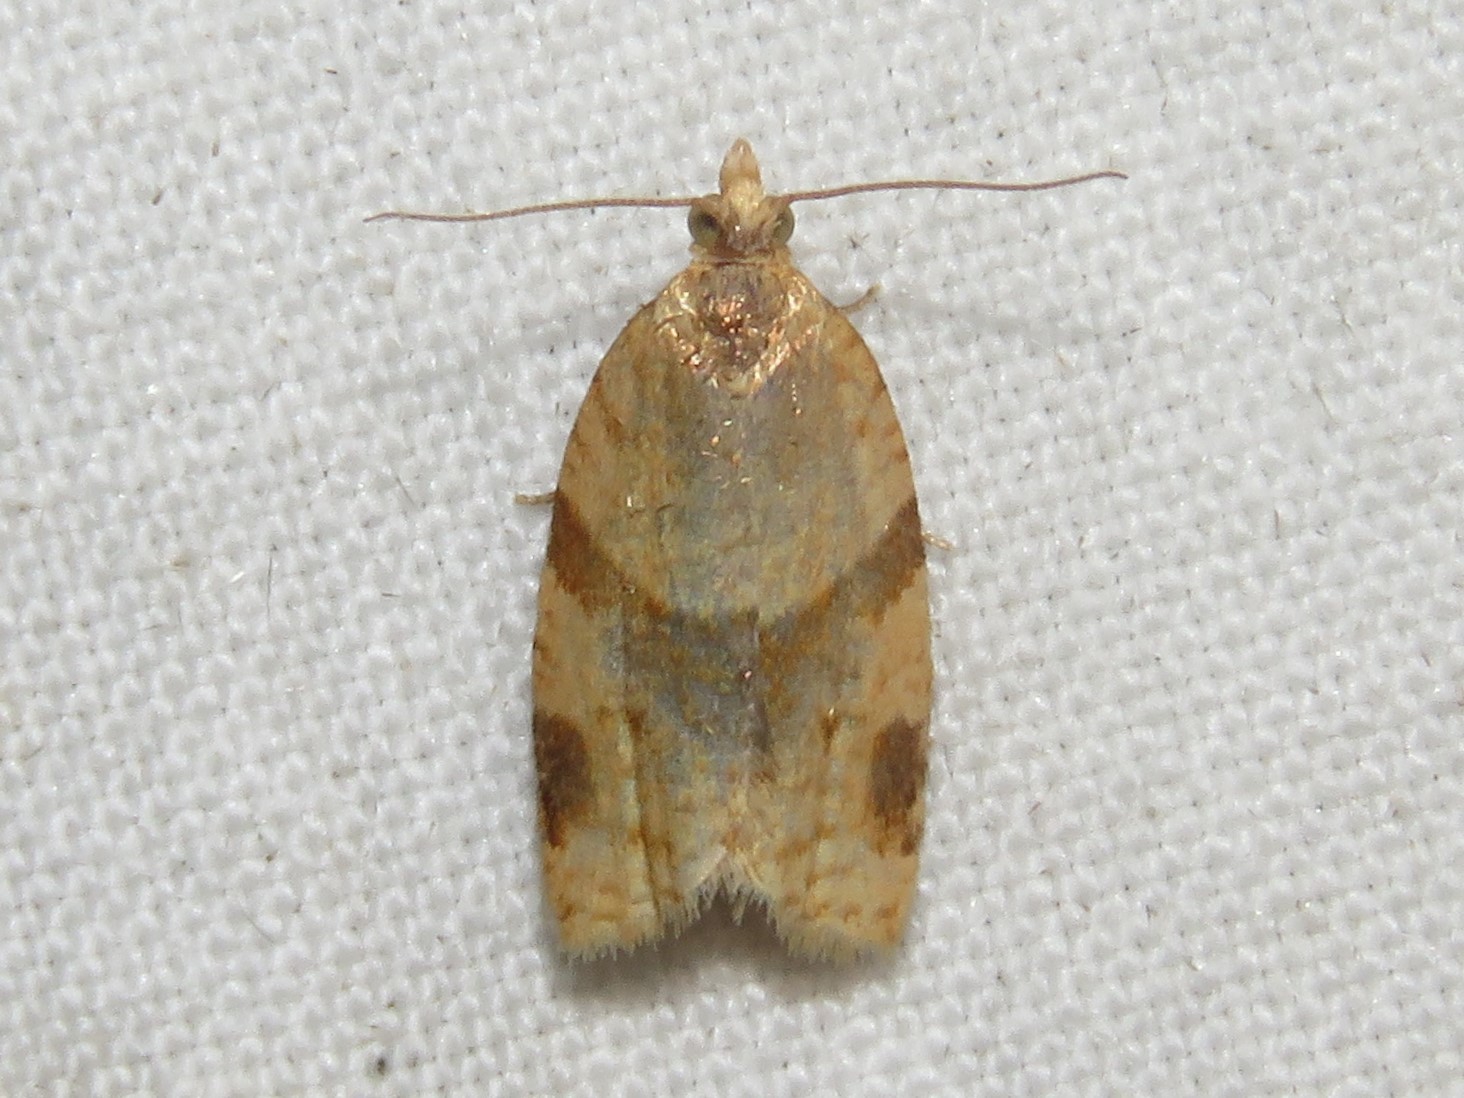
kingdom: Animalia
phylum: Arthropoda
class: Insecta
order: Lepidoptera
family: Tortricidae
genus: Clepsis
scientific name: Clepsis peritana
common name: Garden tortrix
